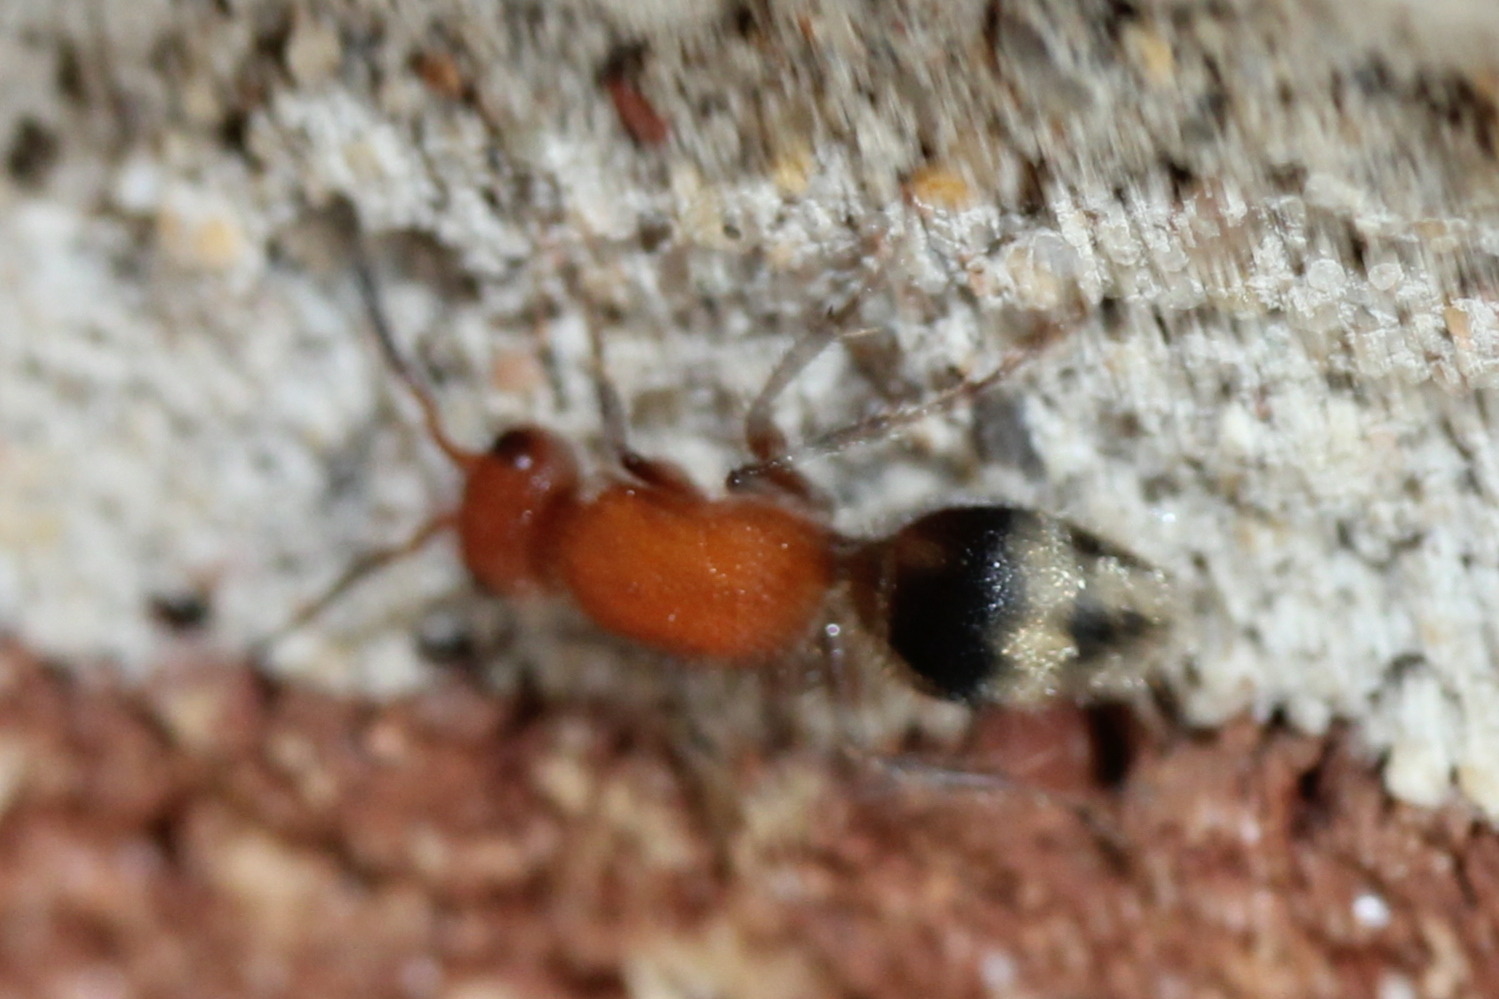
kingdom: Animalia
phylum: Arthropoda
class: Insecta
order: Hymenoptera
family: Mutillidae
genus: Timulla
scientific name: Timulla
